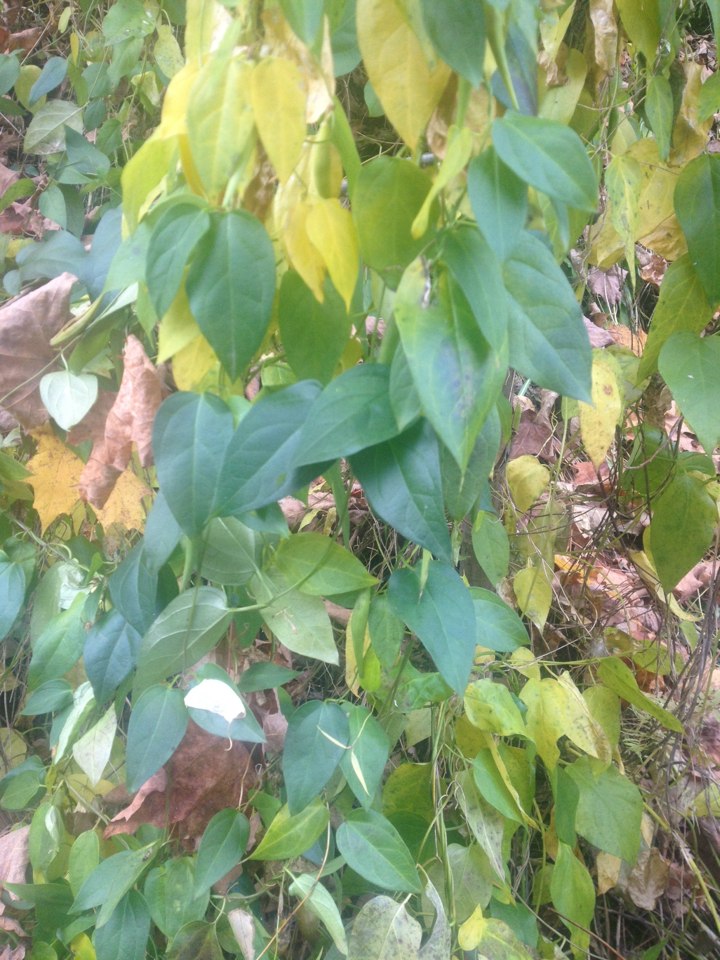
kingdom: Plantae
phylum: Tracheophyta
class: Magnoliopsida
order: Gentianales
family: Apocynaceae
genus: Vincetoxicum
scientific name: Vincetoxicum nigrum
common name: Black swallow-wort
